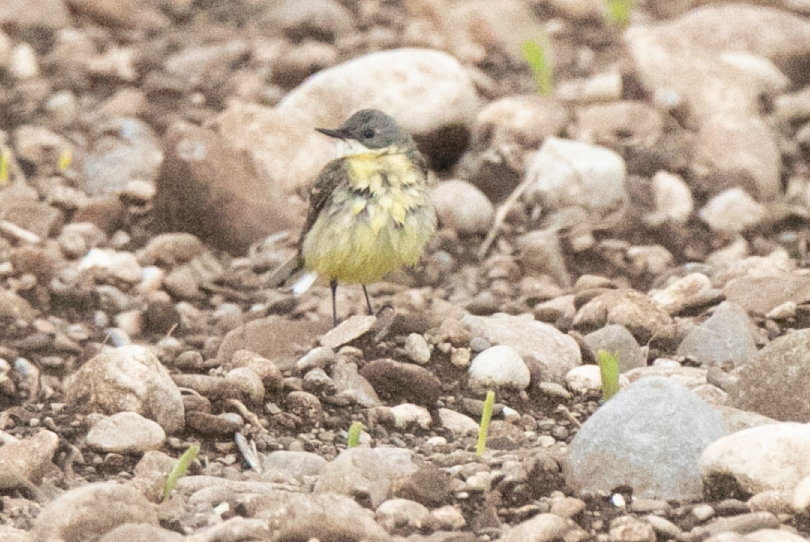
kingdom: Animalia
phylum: Chordata
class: Aves
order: Passeriformes
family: Motacillidae
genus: Motacilla
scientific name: Motacilla flava
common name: Western yellow wagtail
